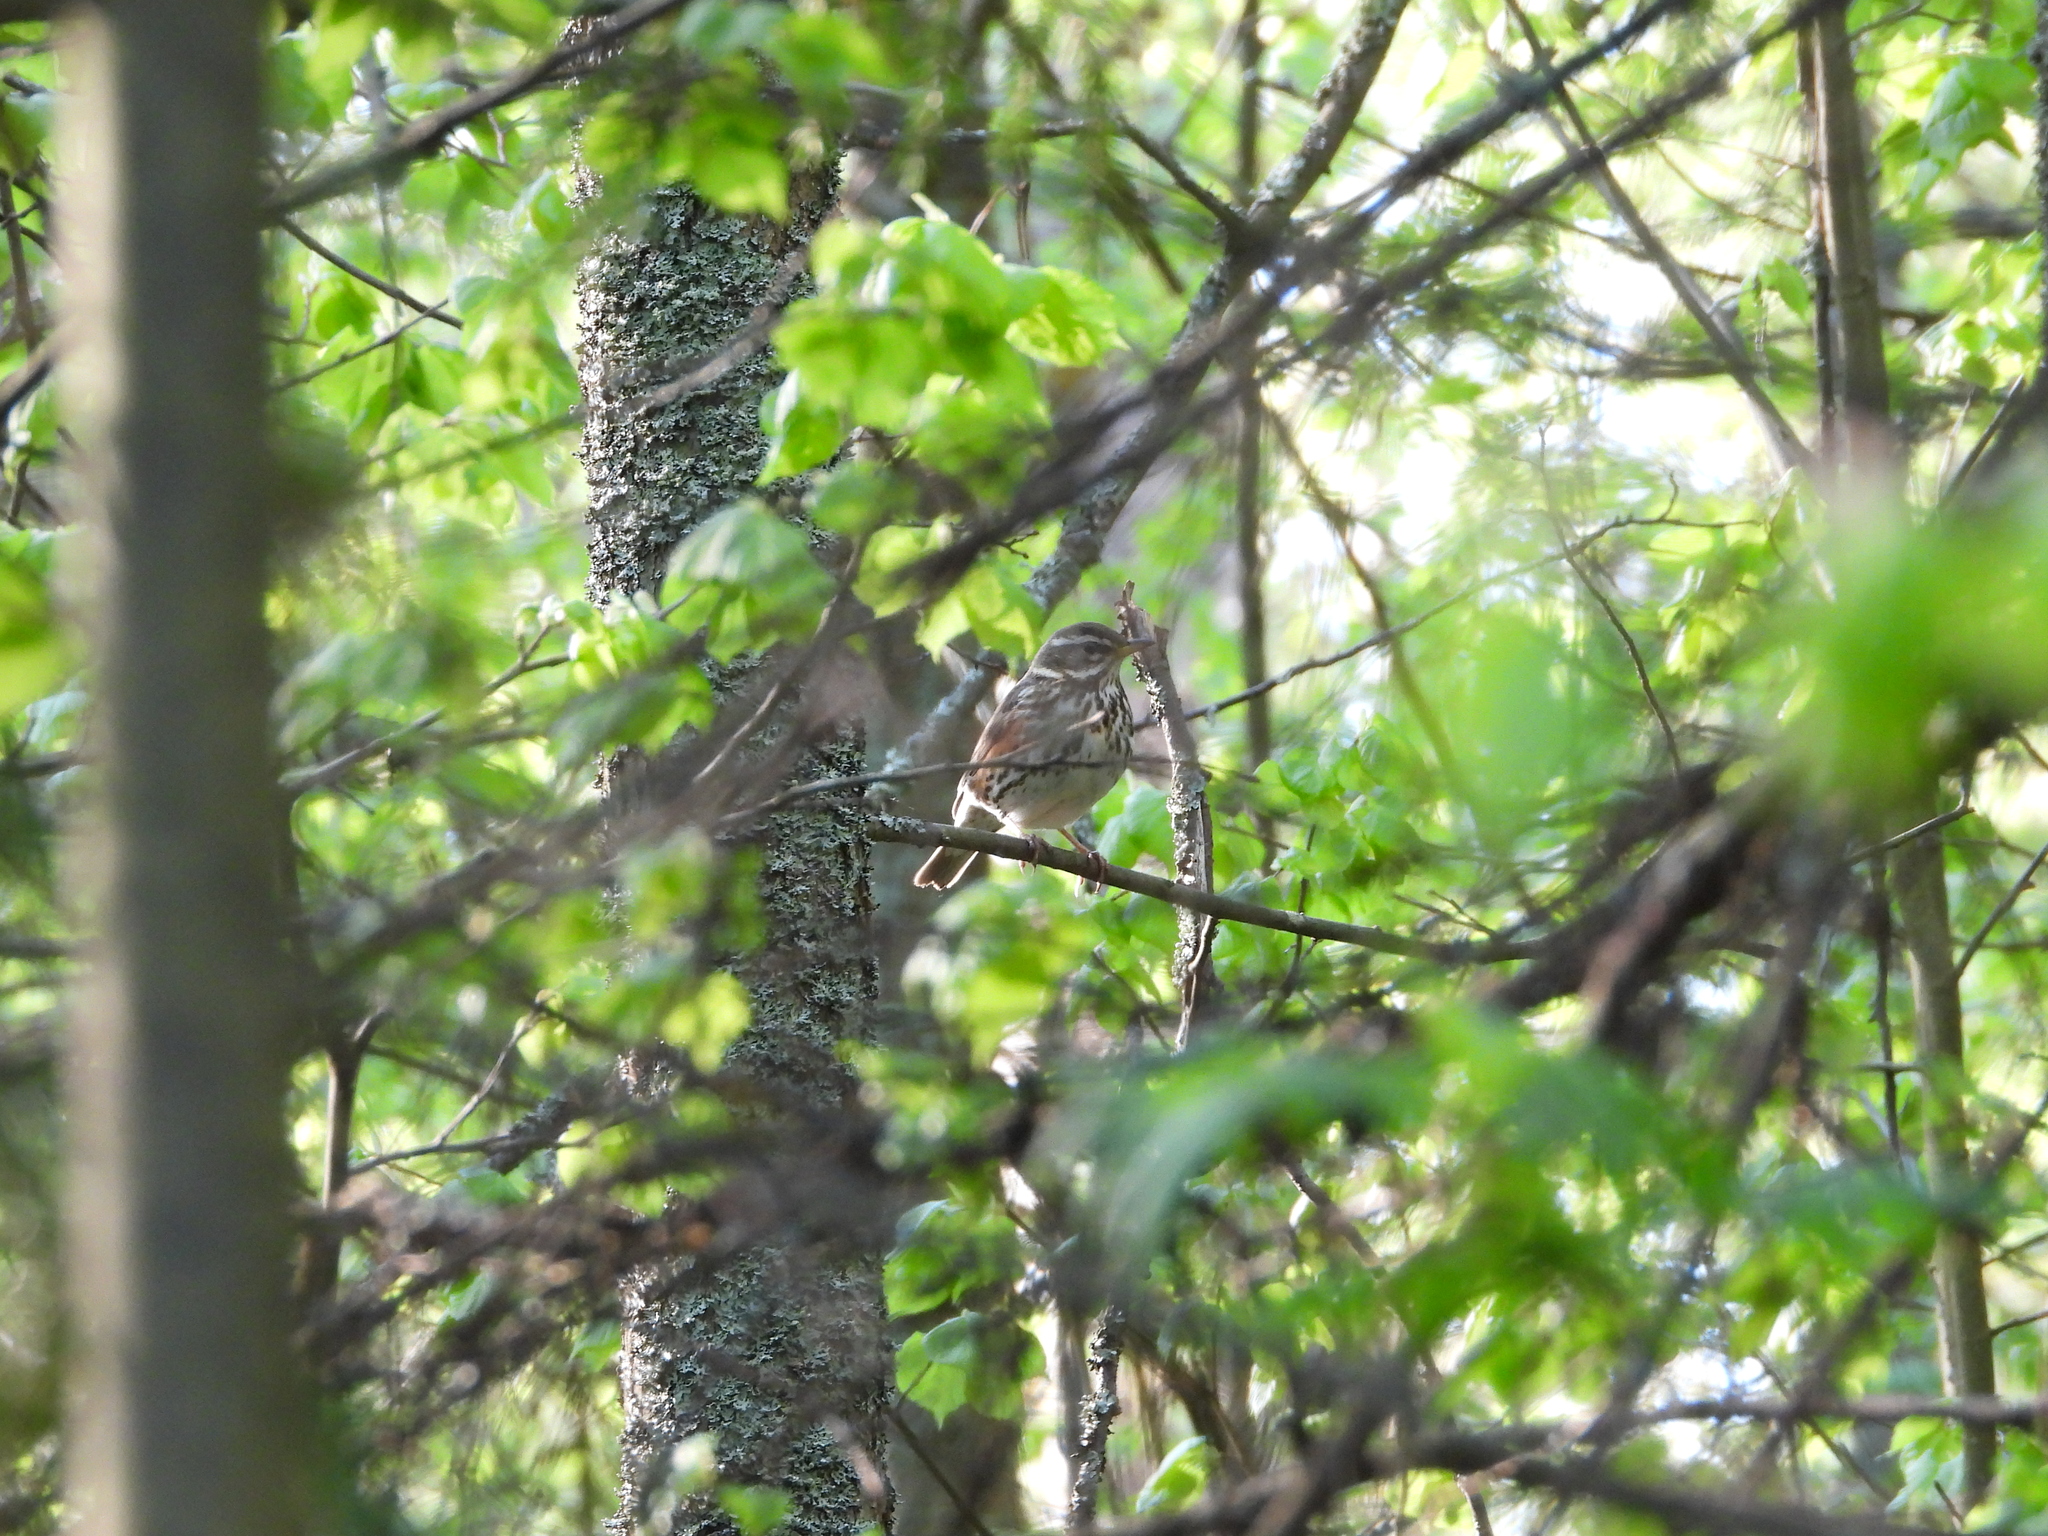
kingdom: Animalia
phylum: Chordata
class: Aves
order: Passeriformes
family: Turdidae
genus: Turdus
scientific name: Turdus iliacus
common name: Redwing
